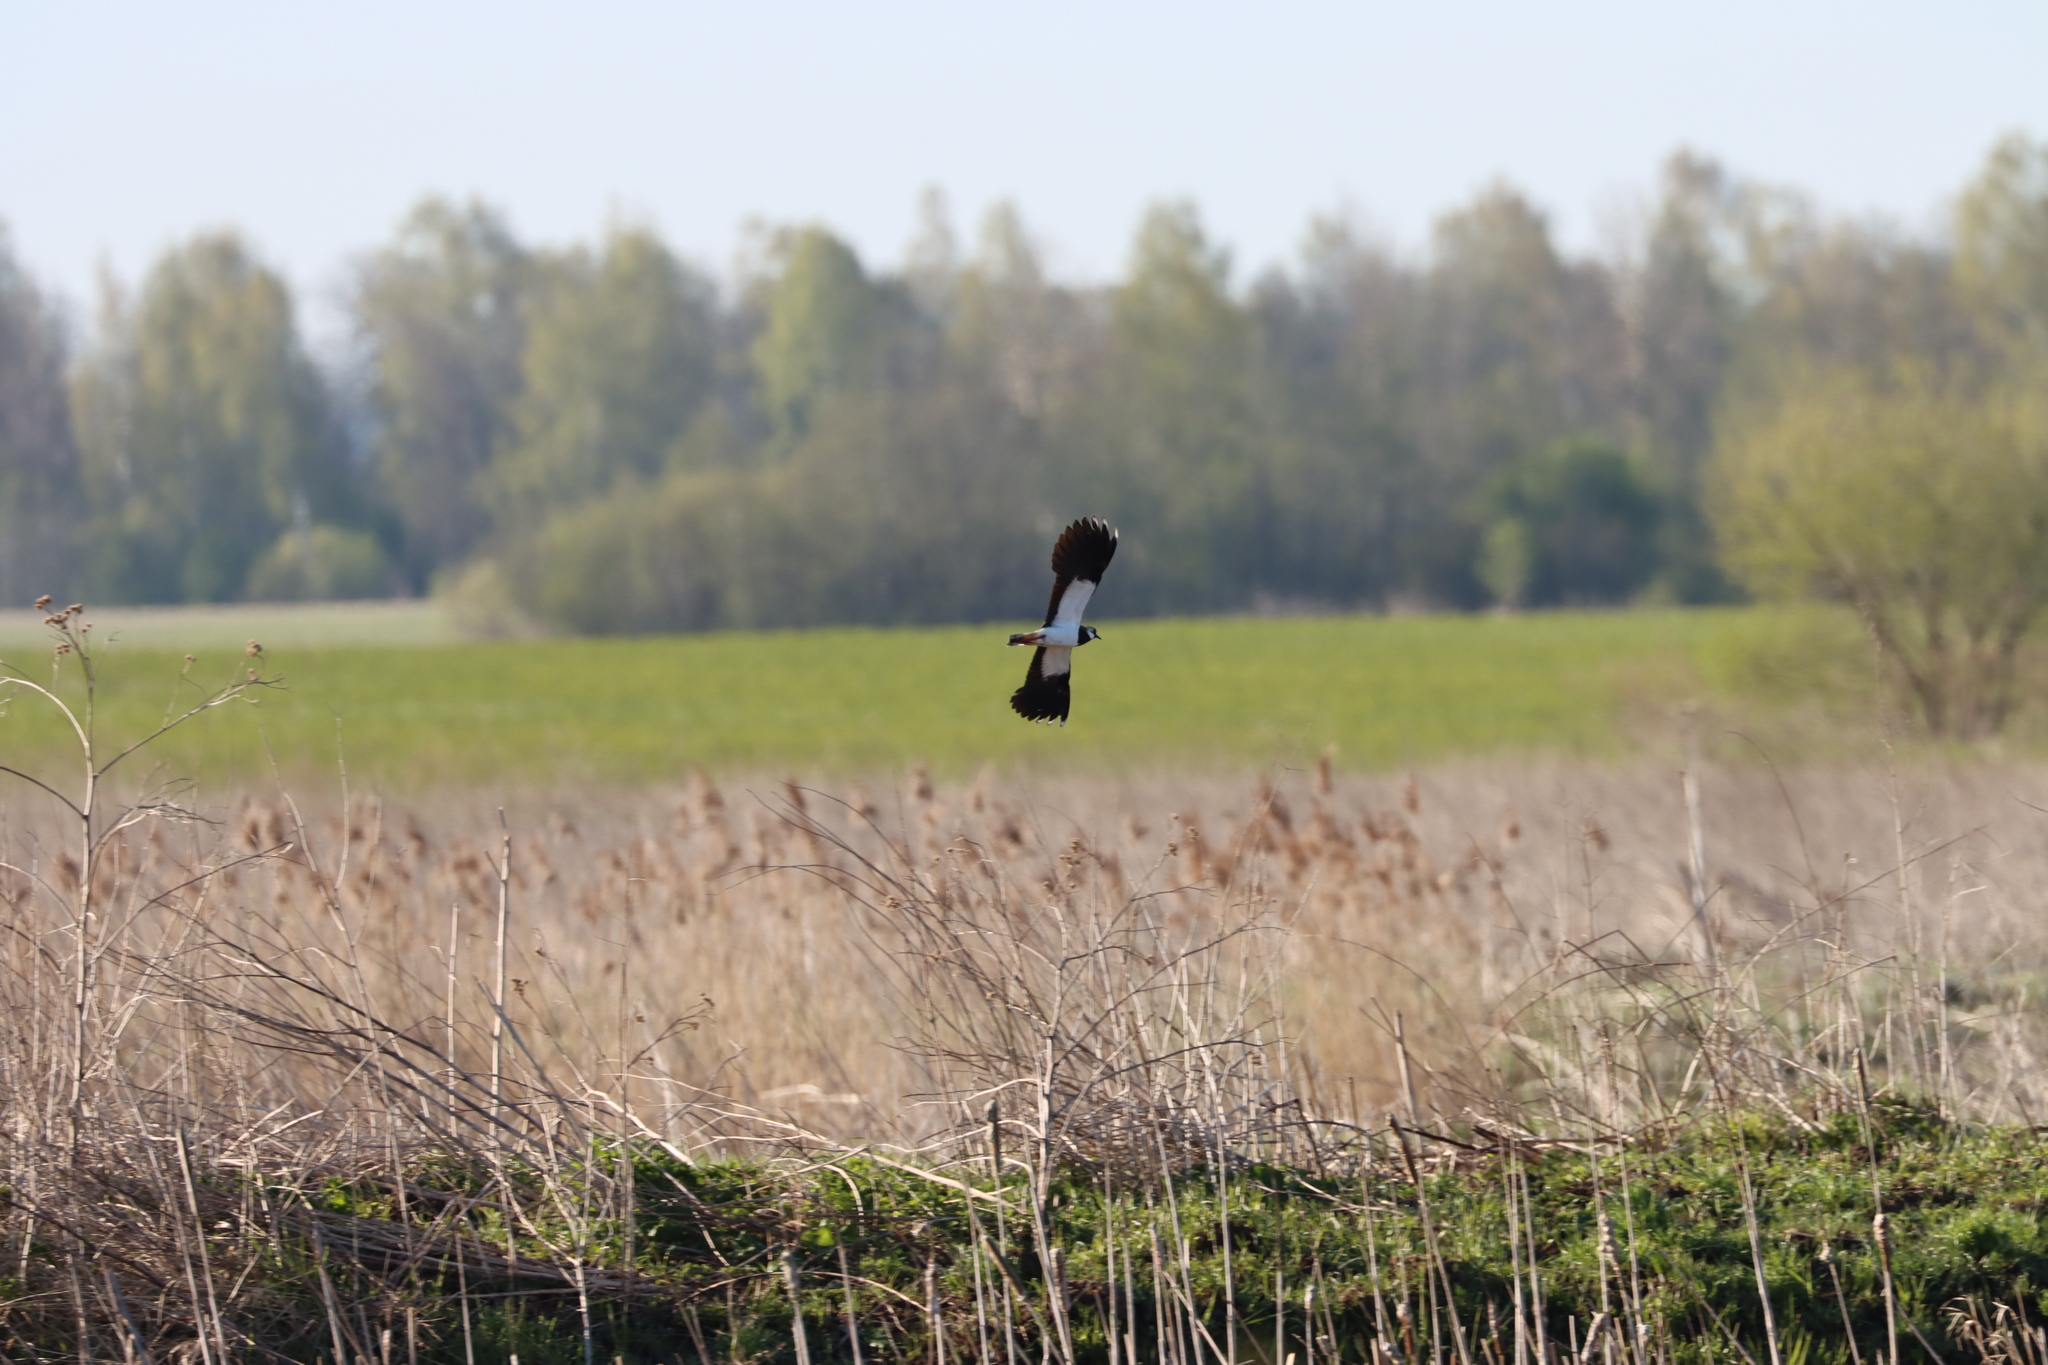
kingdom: Animalia
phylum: Chordata
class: Aves
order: Charadriiformes
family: Charadriidae
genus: Vanellus
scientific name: Vanellus vanellus
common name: Northern lapwing
